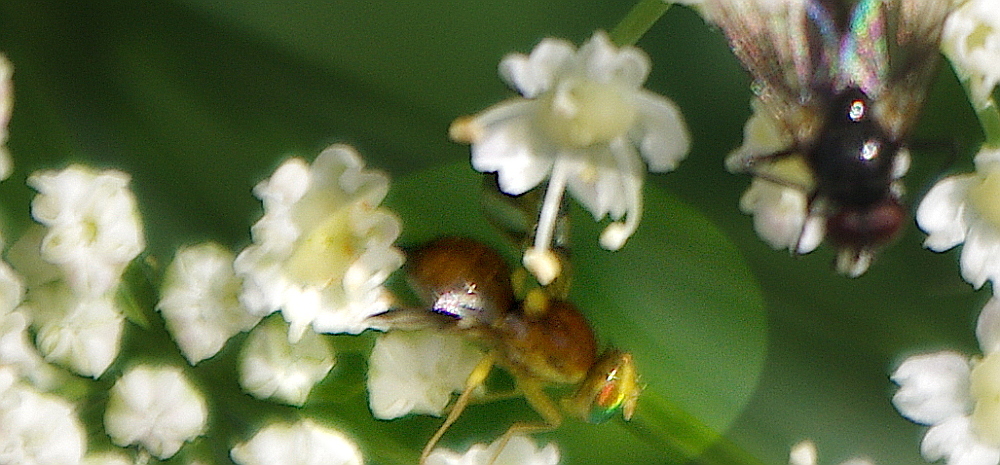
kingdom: Animalia
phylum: Arthropoda
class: Insecta
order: Diptera
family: Tephritidae
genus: Euleia
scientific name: Euleia heraclei
